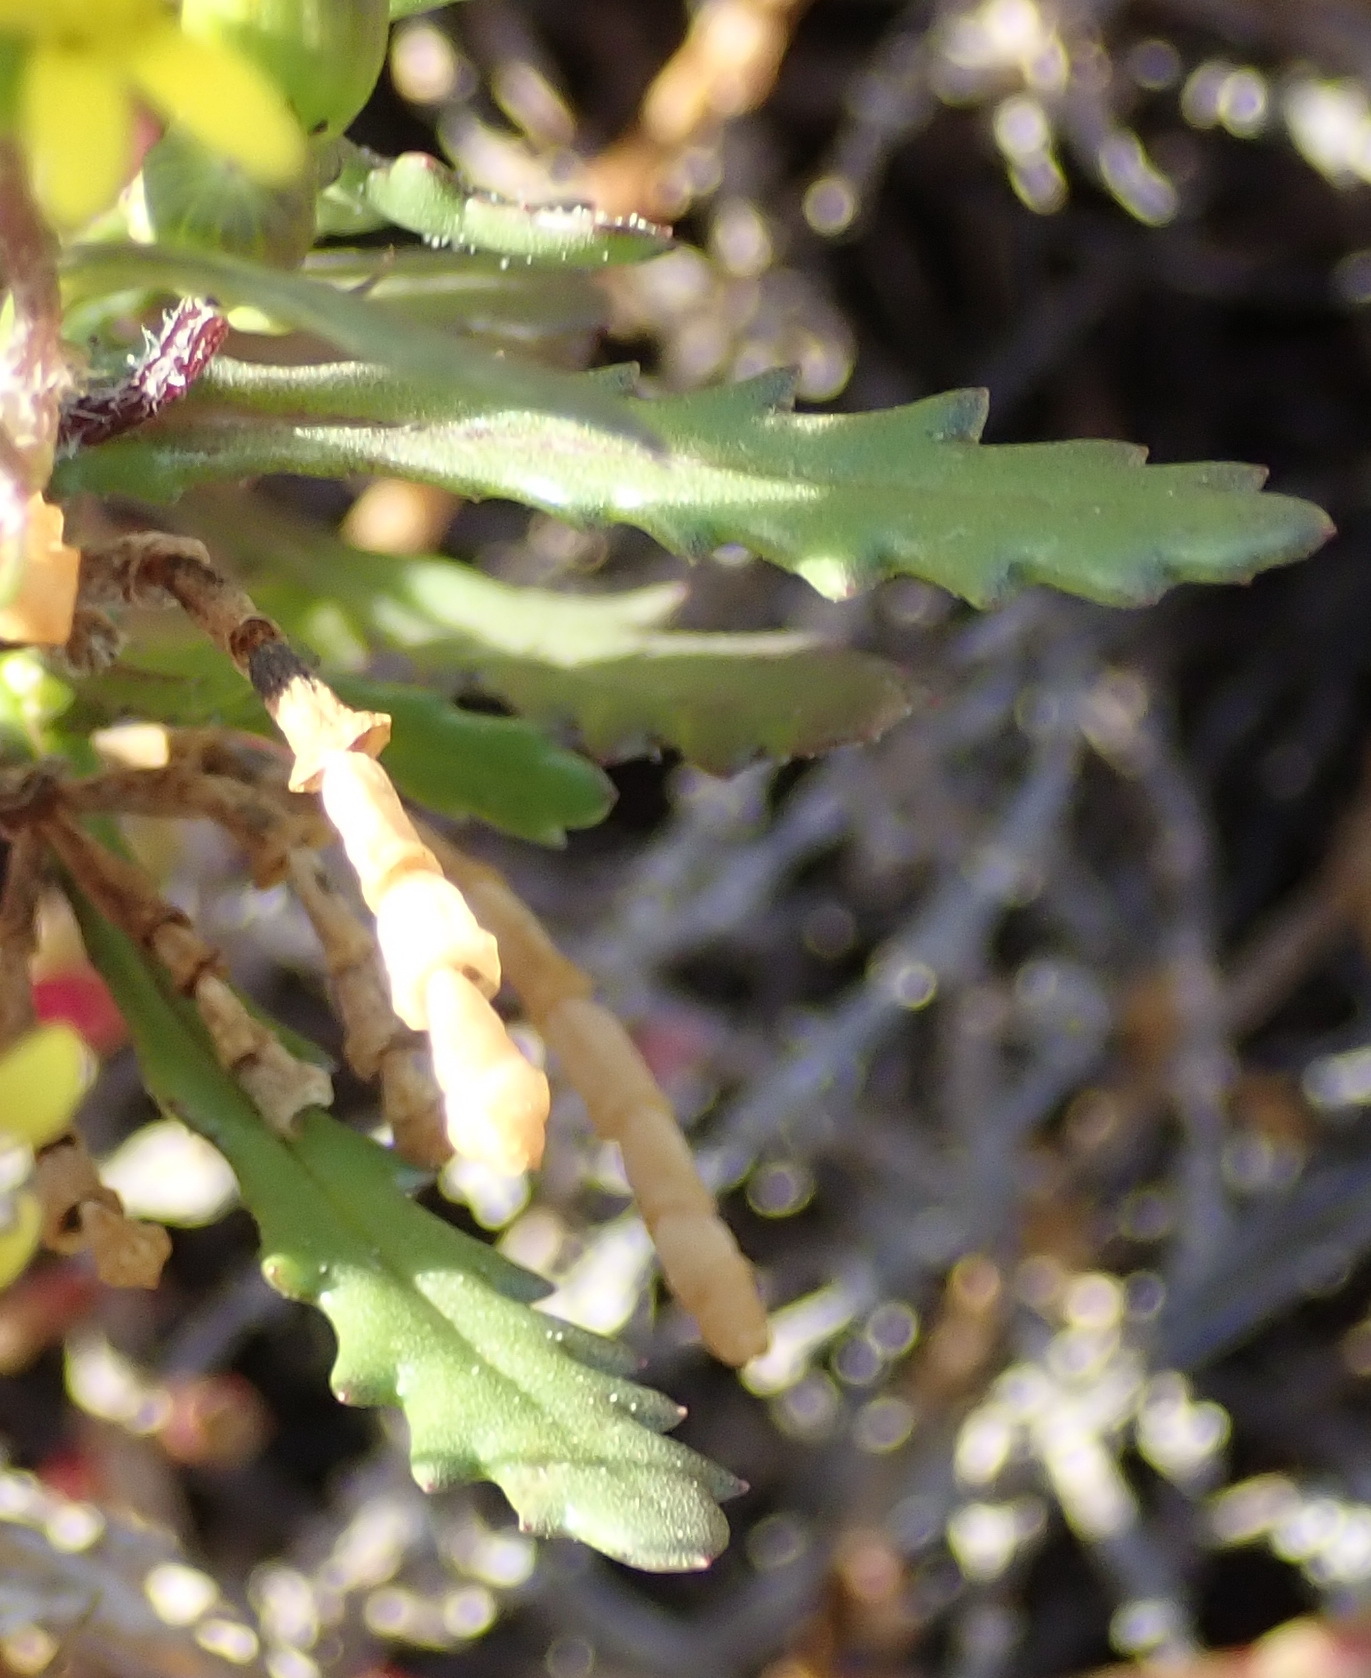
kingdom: Plantae
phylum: Tracheophyta
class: Magnoliopsida
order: Asterales
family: Asteraceae
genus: Senecio
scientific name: Senecio littoreus
